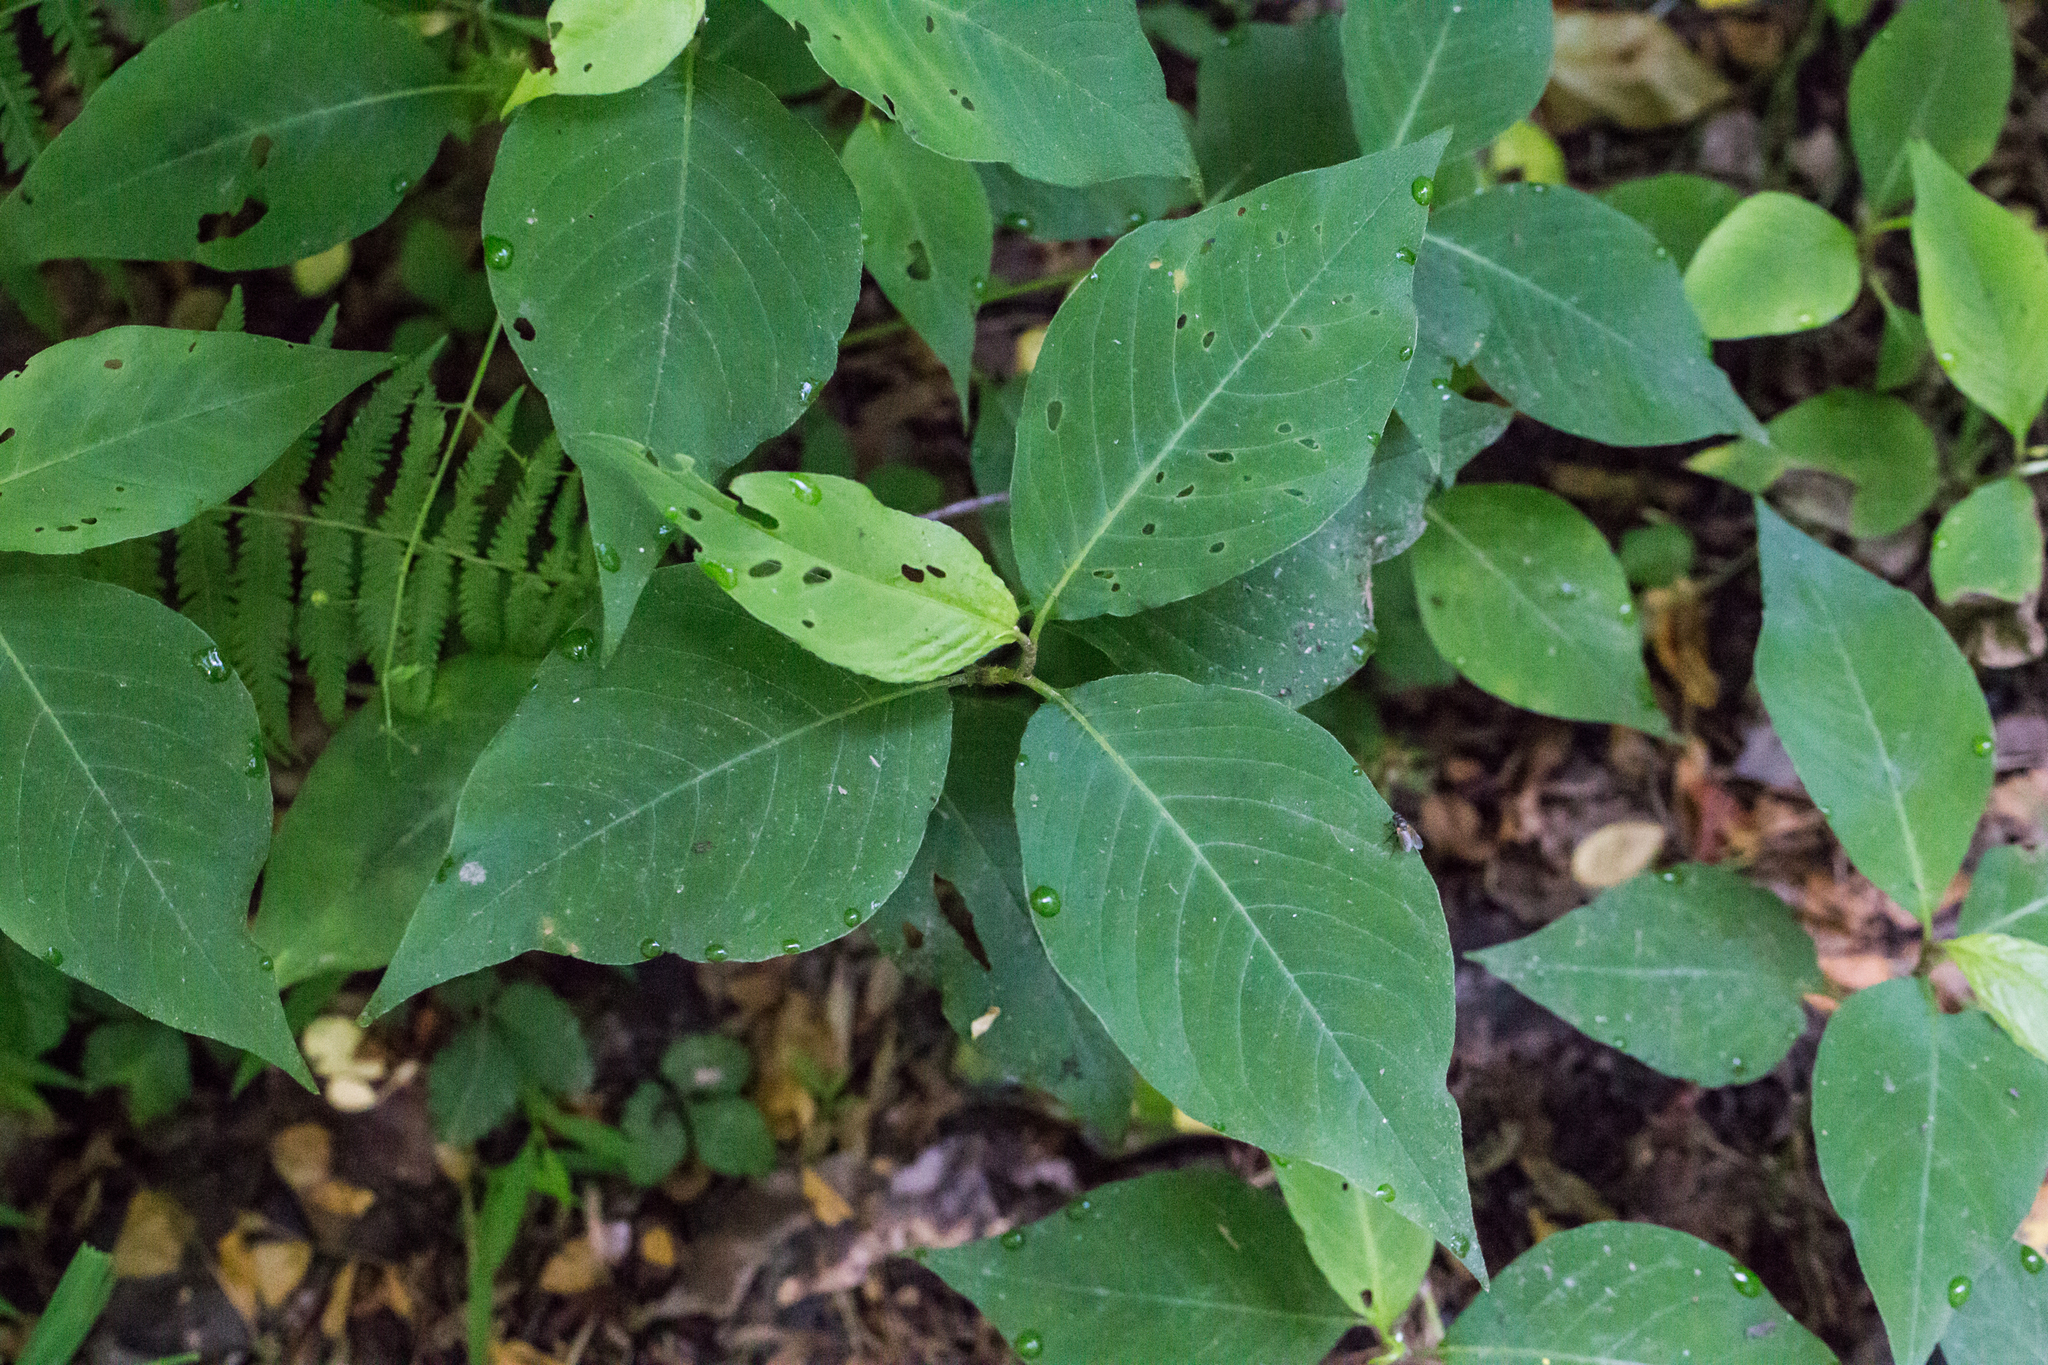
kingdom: Plantae
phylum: Tracheophyta
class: Magnoliopsida
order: Caryophyllales
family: Polygonaceae
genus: Persicaria
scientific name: Persicaria virginiana
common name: Jumpseed
